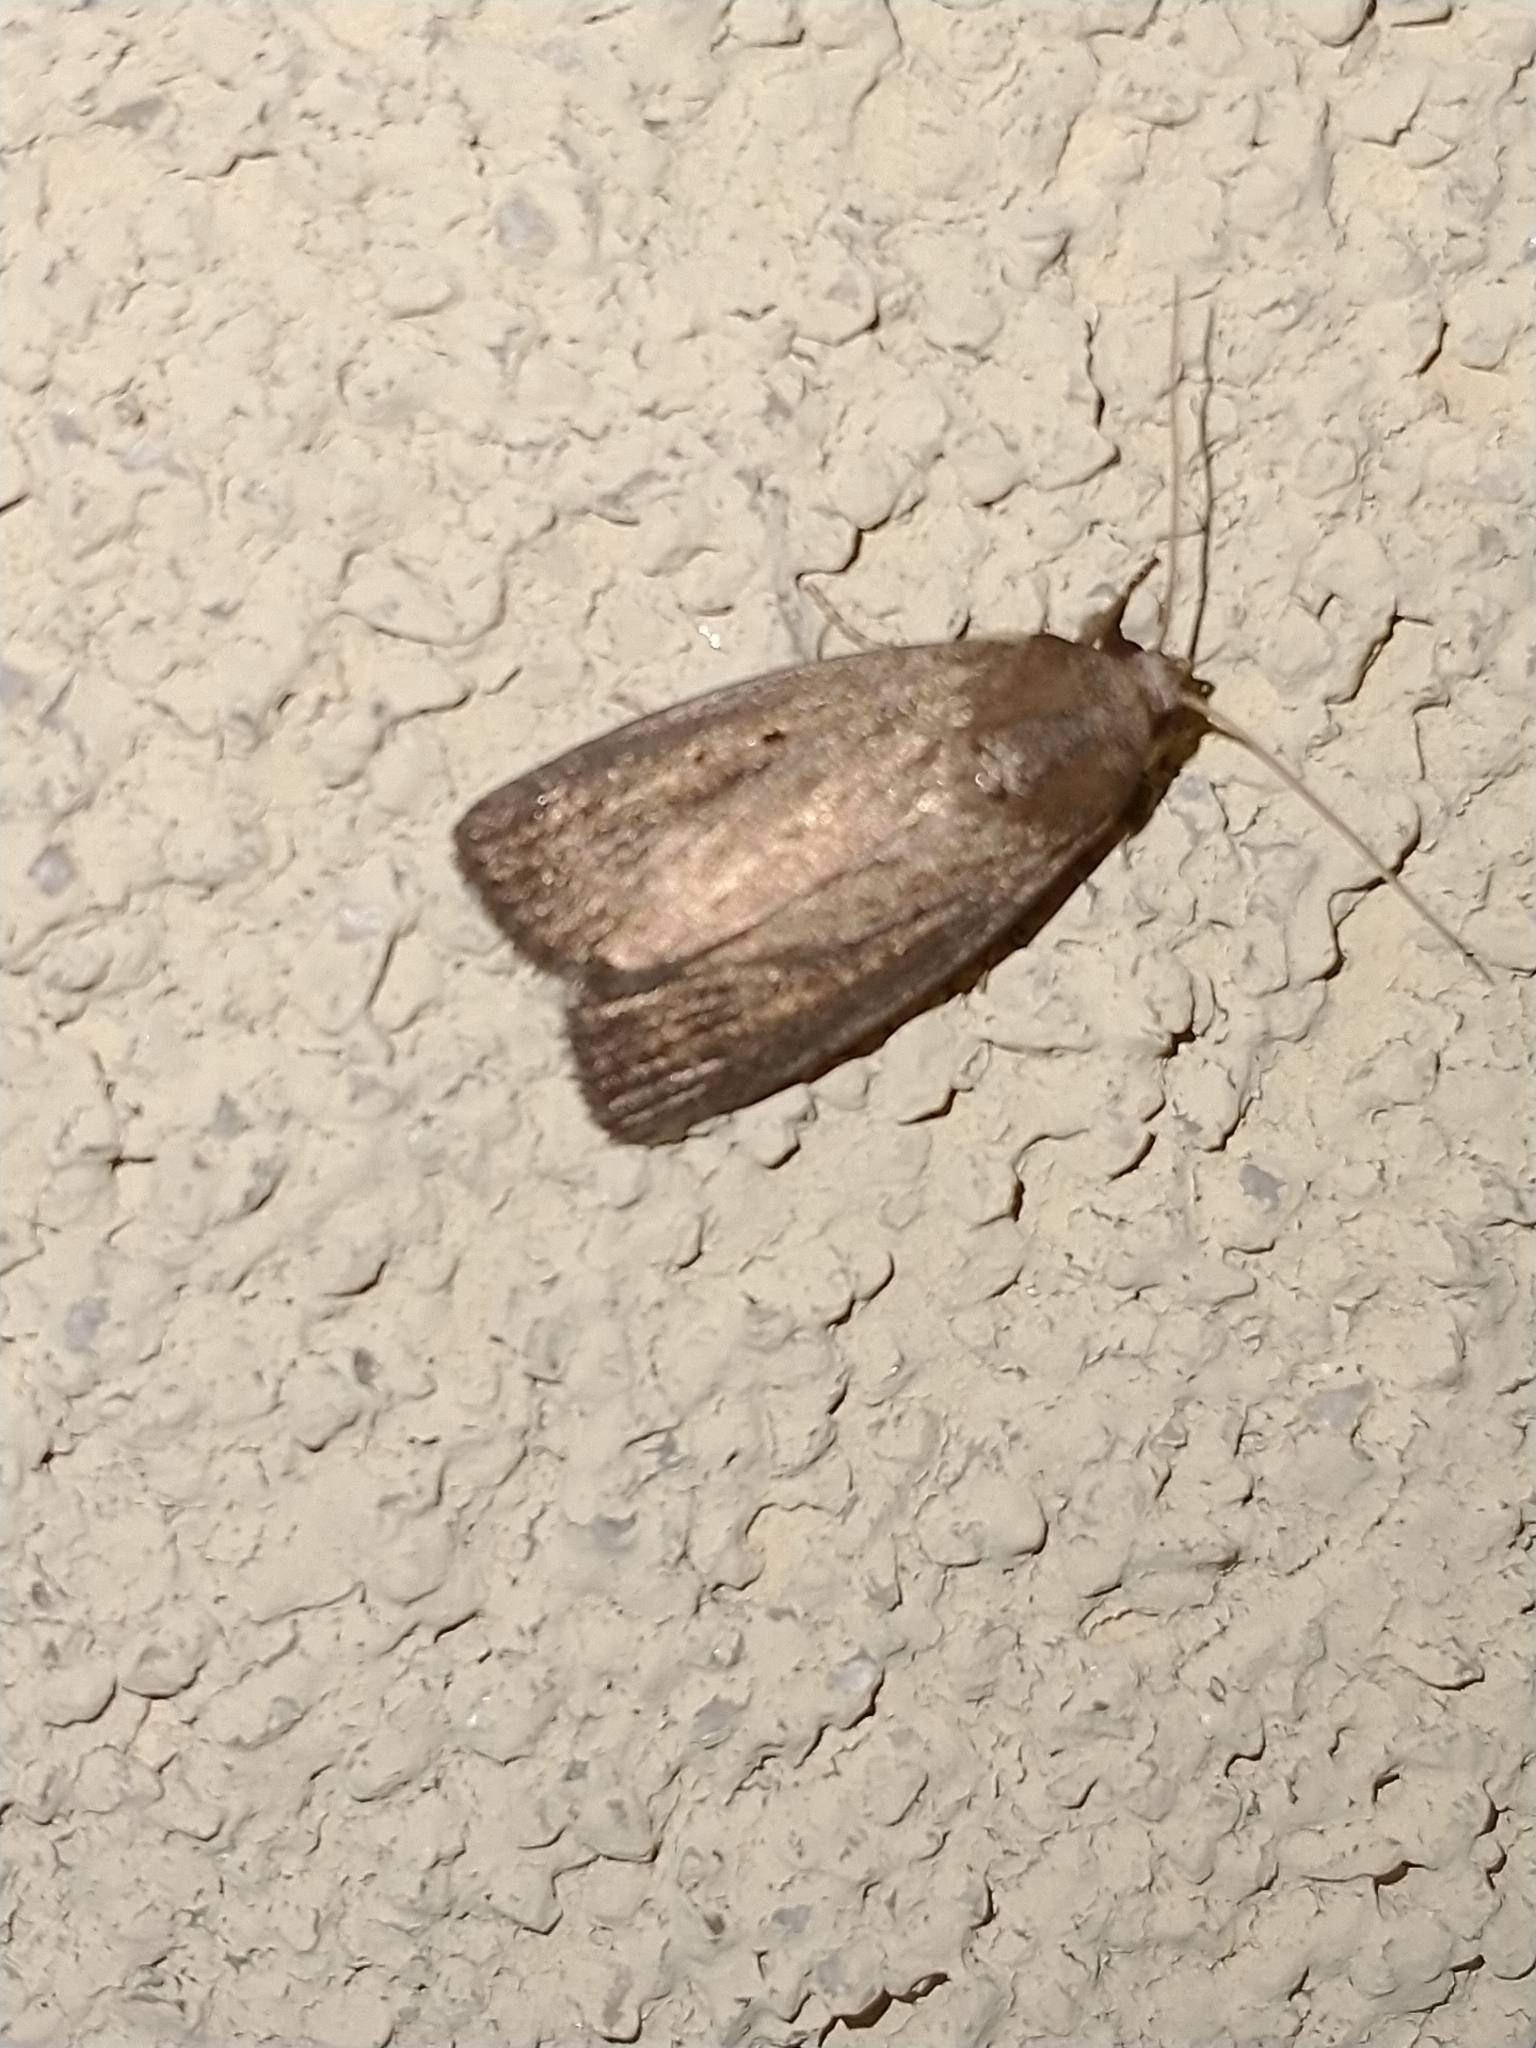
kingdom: Animalia
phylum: Arthropoda
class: Insecta
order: Lepidoptera
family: Noctuidae
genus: Athetis
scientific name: Athetis hospes
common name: Porter's rustic
